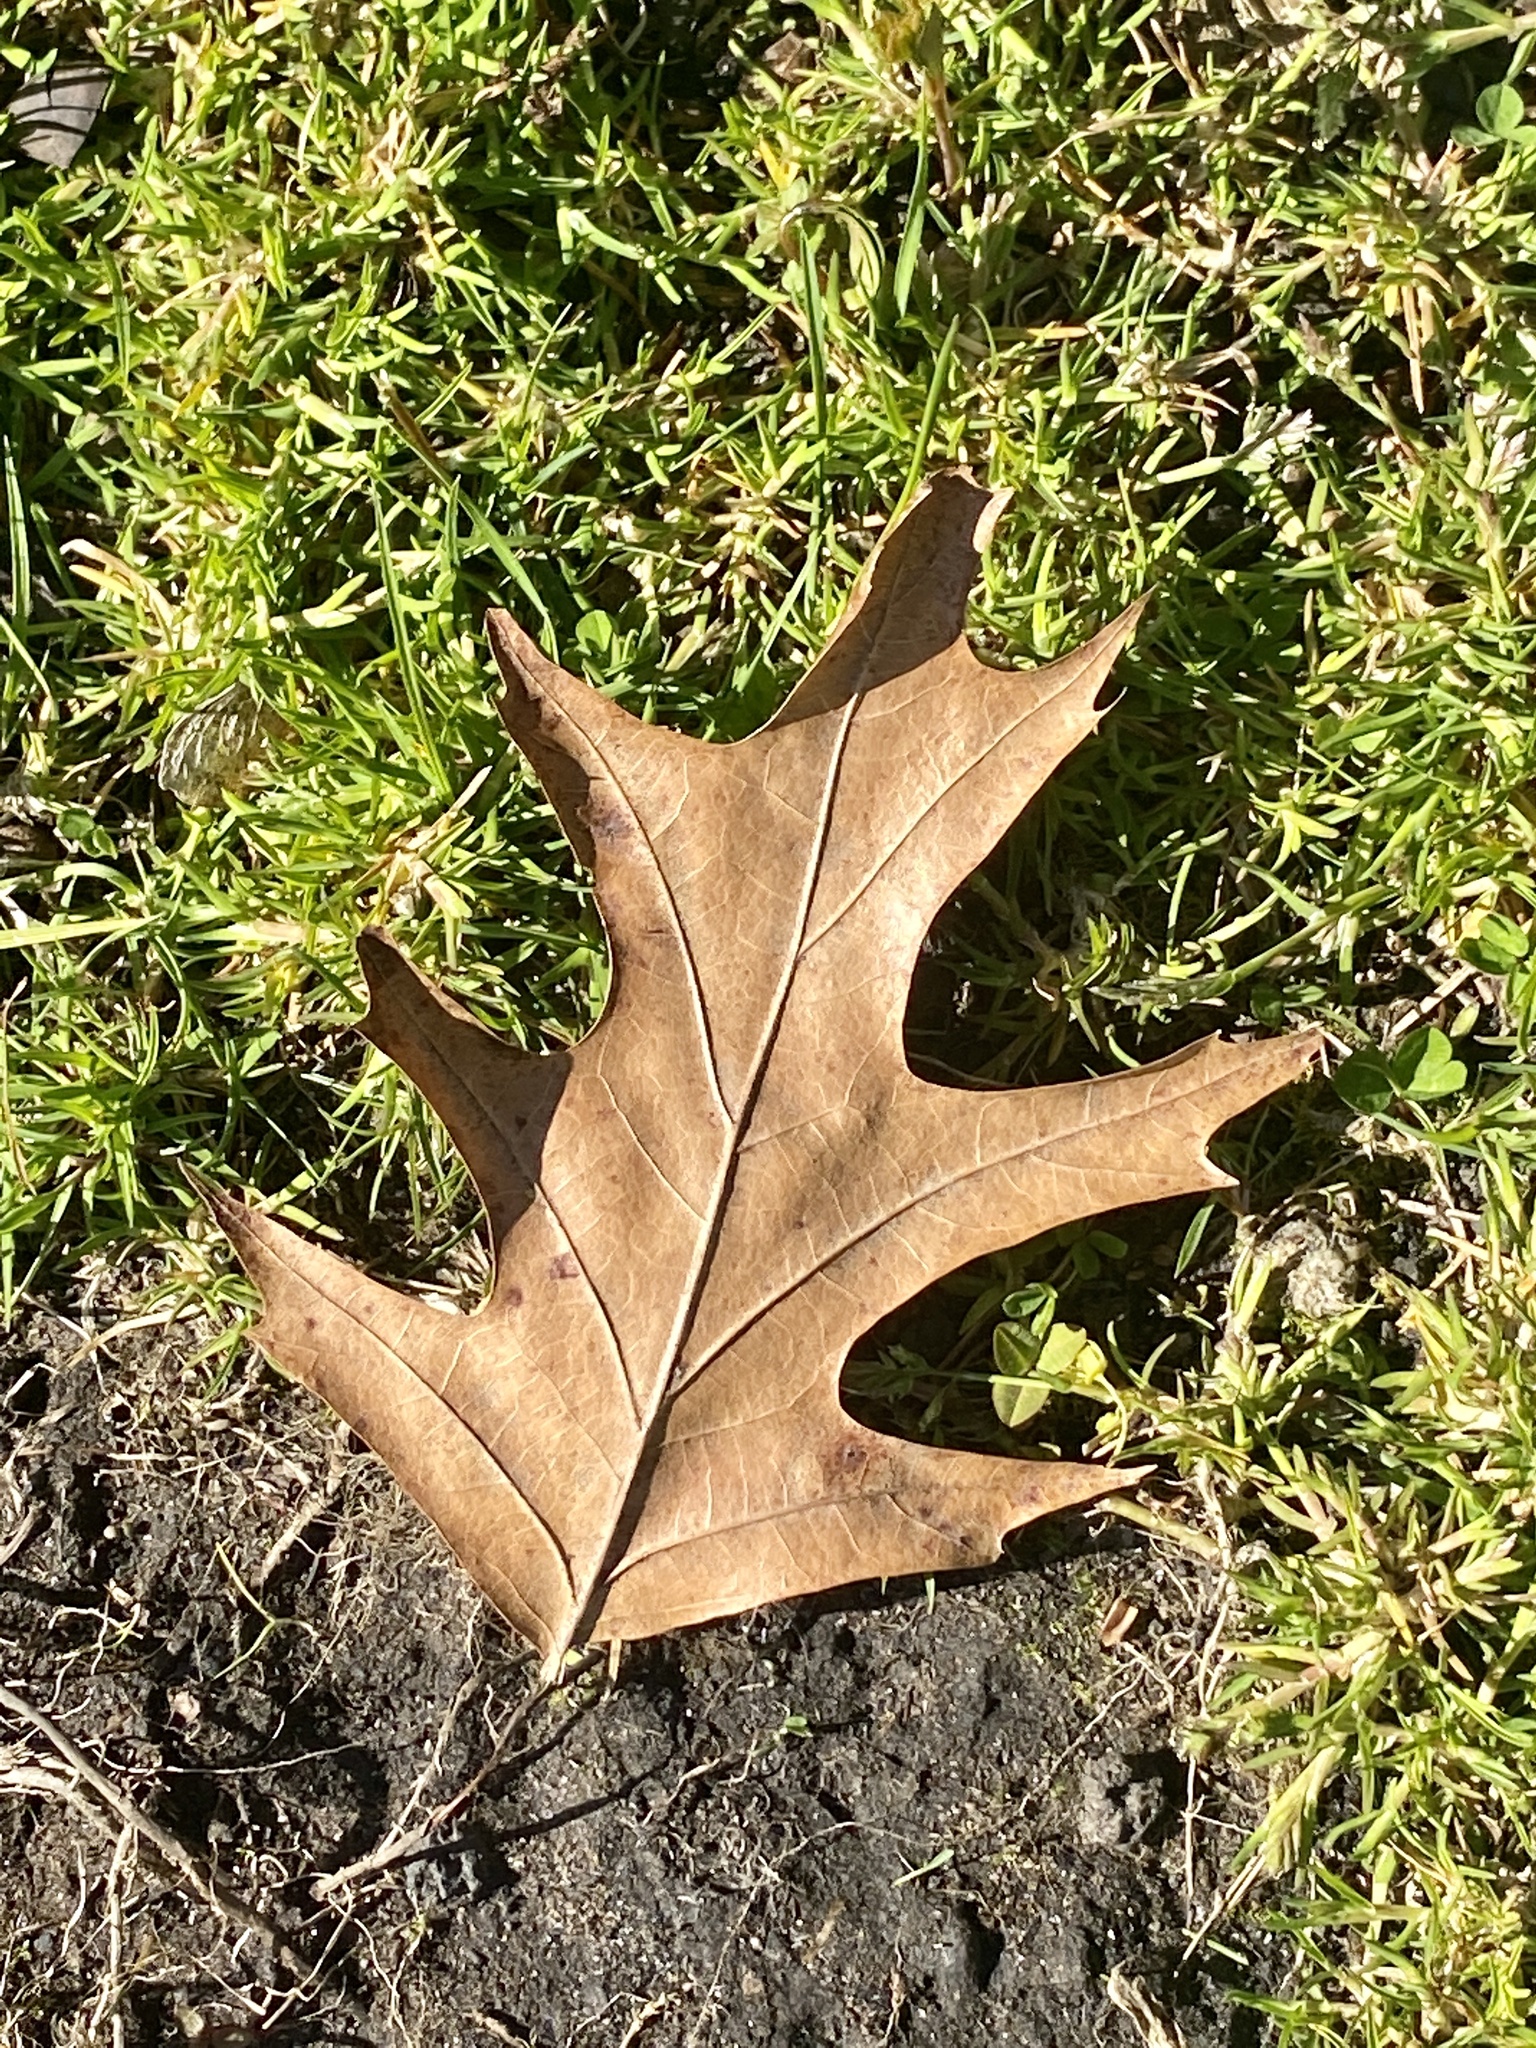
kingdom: Plantae
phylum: Tracheophyta
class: Magnoliopsida
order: Fagales
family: Fagaceae
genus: Quercus
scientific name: Quercus rubra
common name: Red oak
